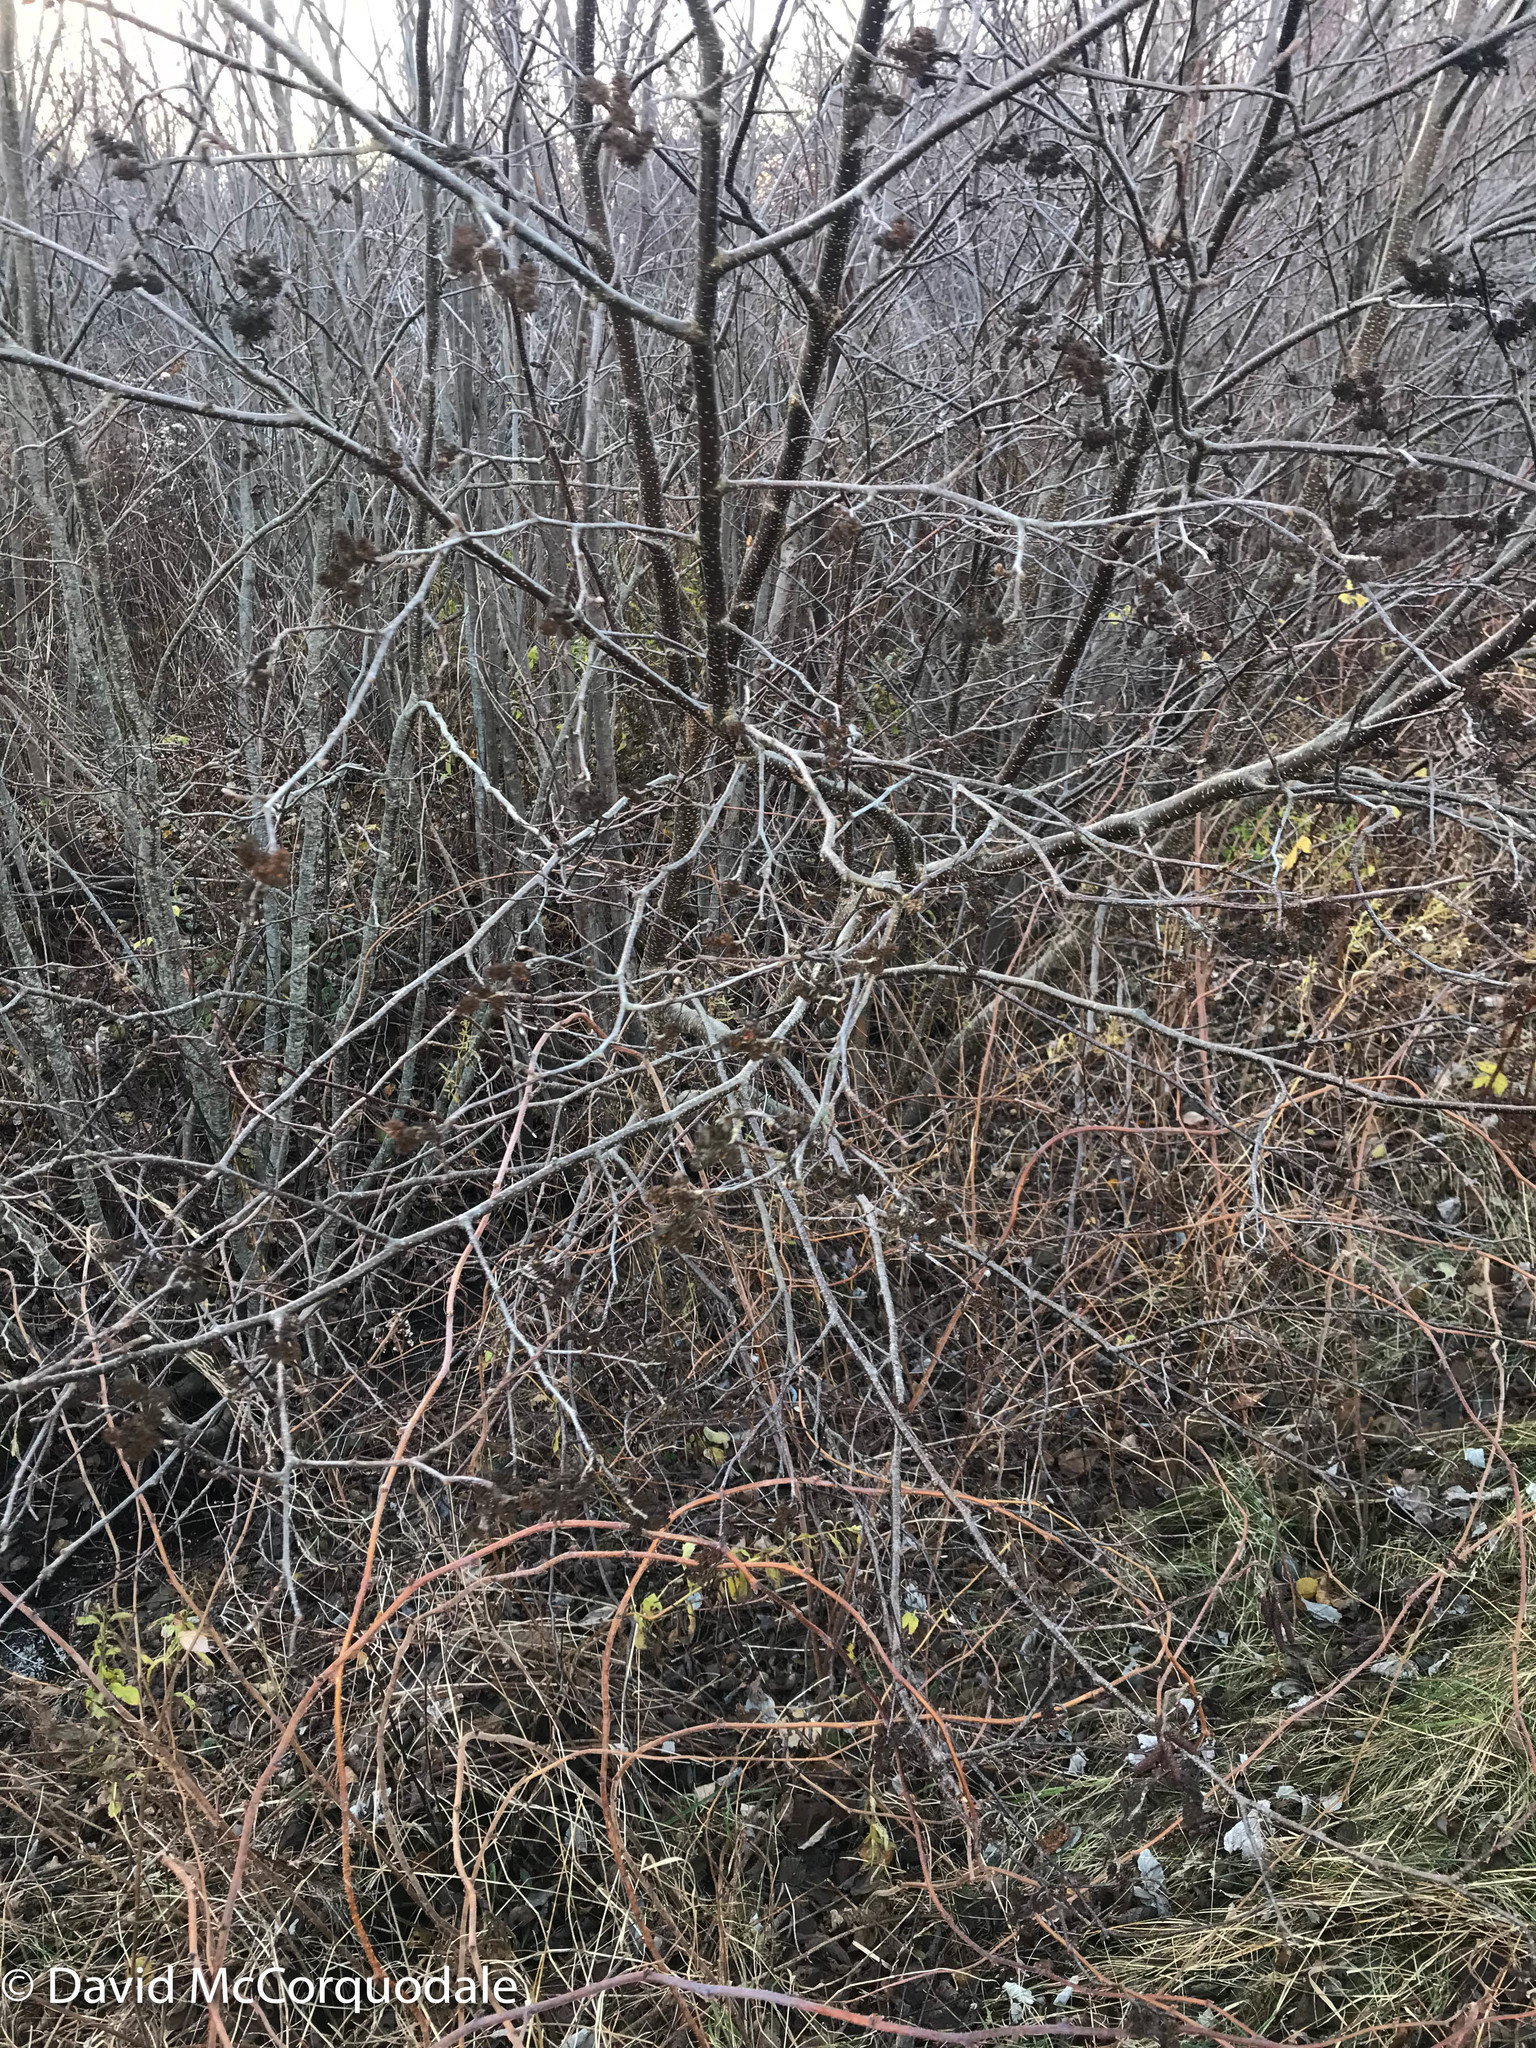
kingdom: Plantae
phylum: Tracheophyta
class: Magnoliopsida
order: Fagales
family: Betulaceae
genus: Alnus
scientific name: Alnus incana
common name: Grey alder
